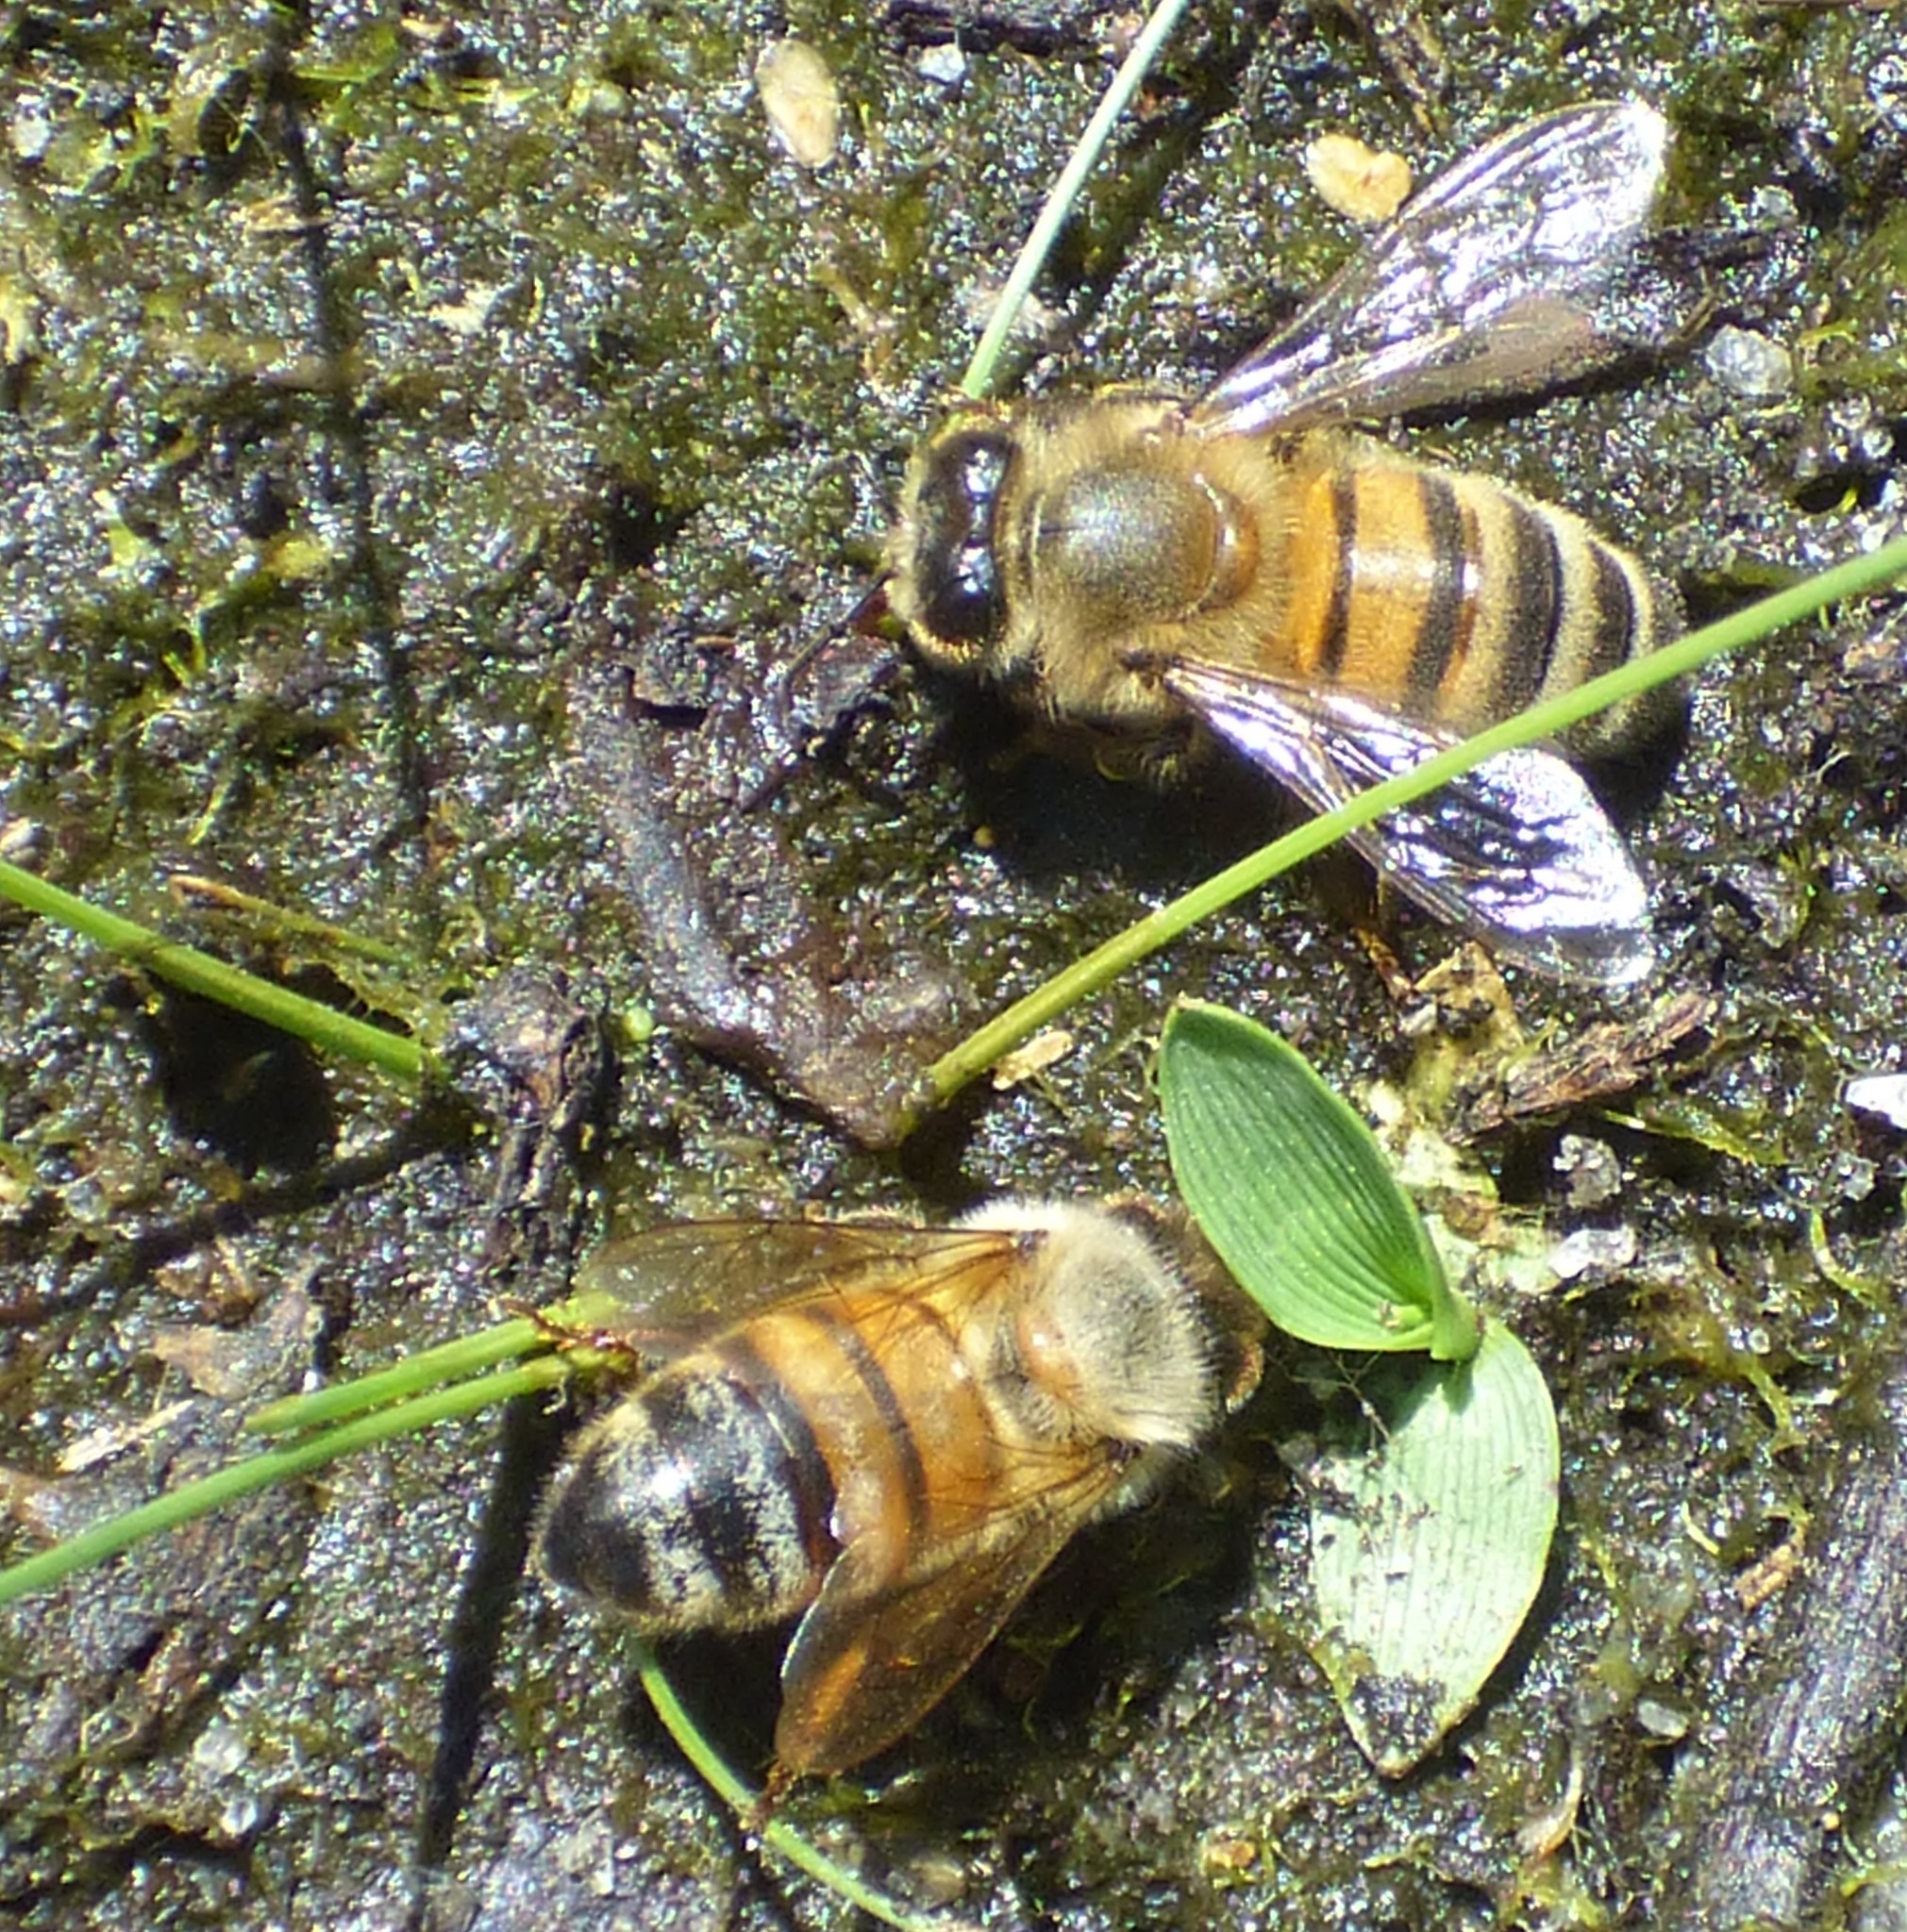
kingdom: Animalia
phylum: Arthropoda
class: Insecta
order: Hymenoptera
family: Apidae
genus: Apis
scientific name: Apis mellifera
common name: Honey bee
